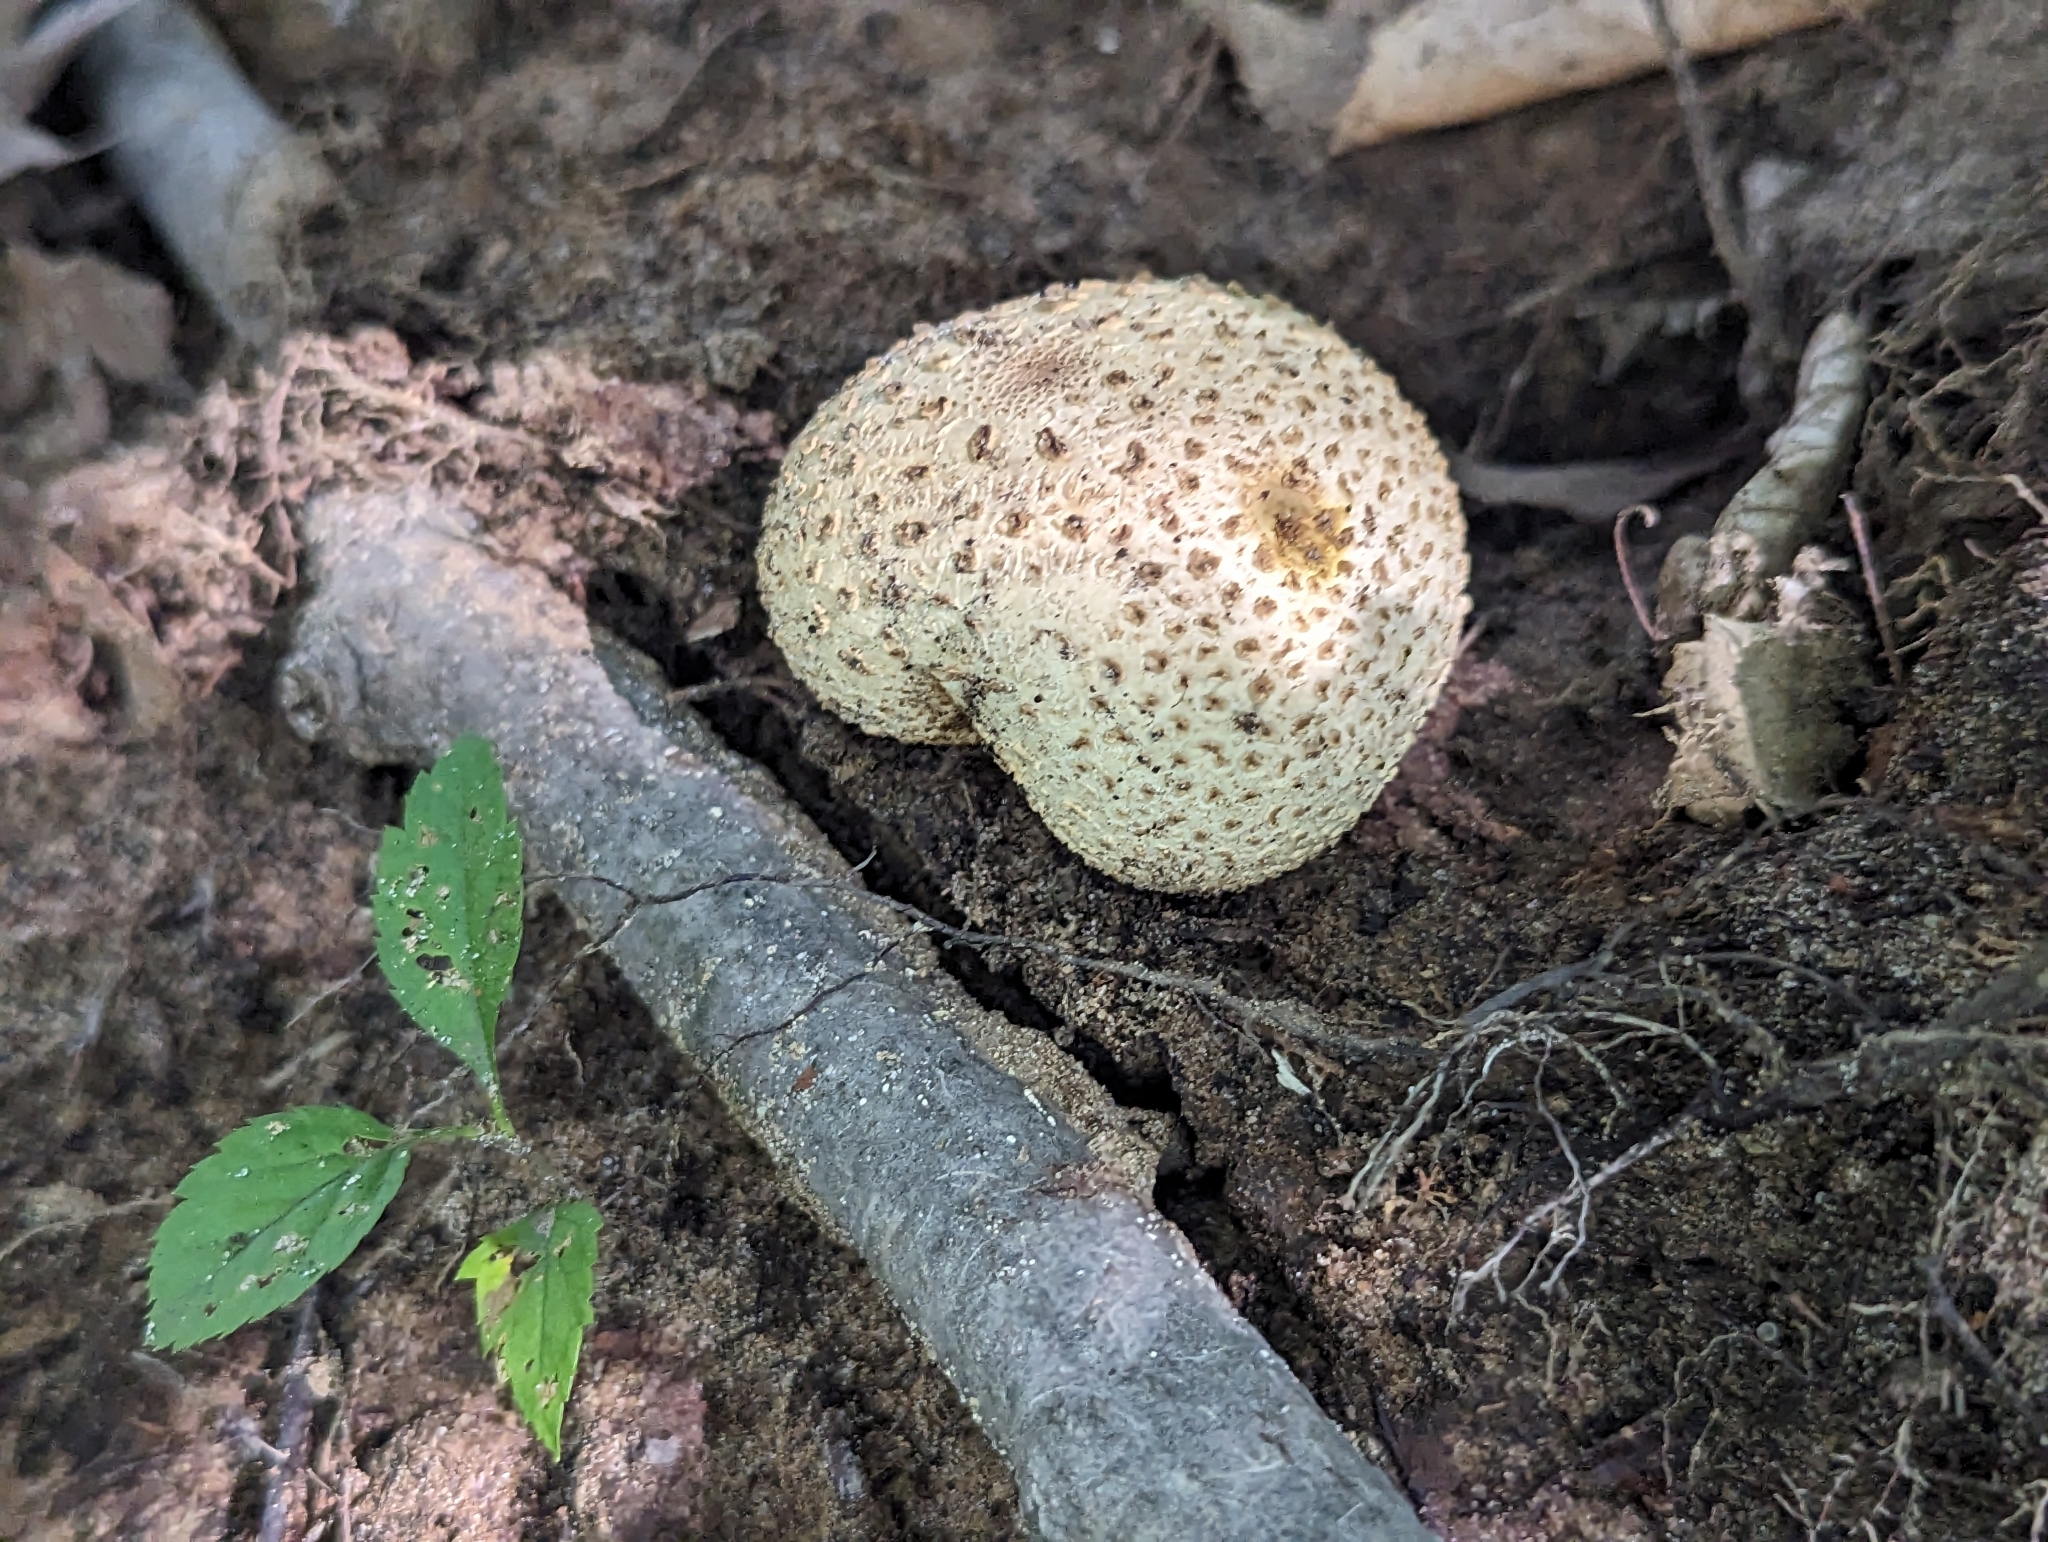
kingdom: Fungi
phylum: Basidiomycota
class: Agaricomycetes
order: Boletales
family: Sclerodermataceae
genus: Scleroderma
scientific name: Scleroderma citrinum
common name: Common earthball
